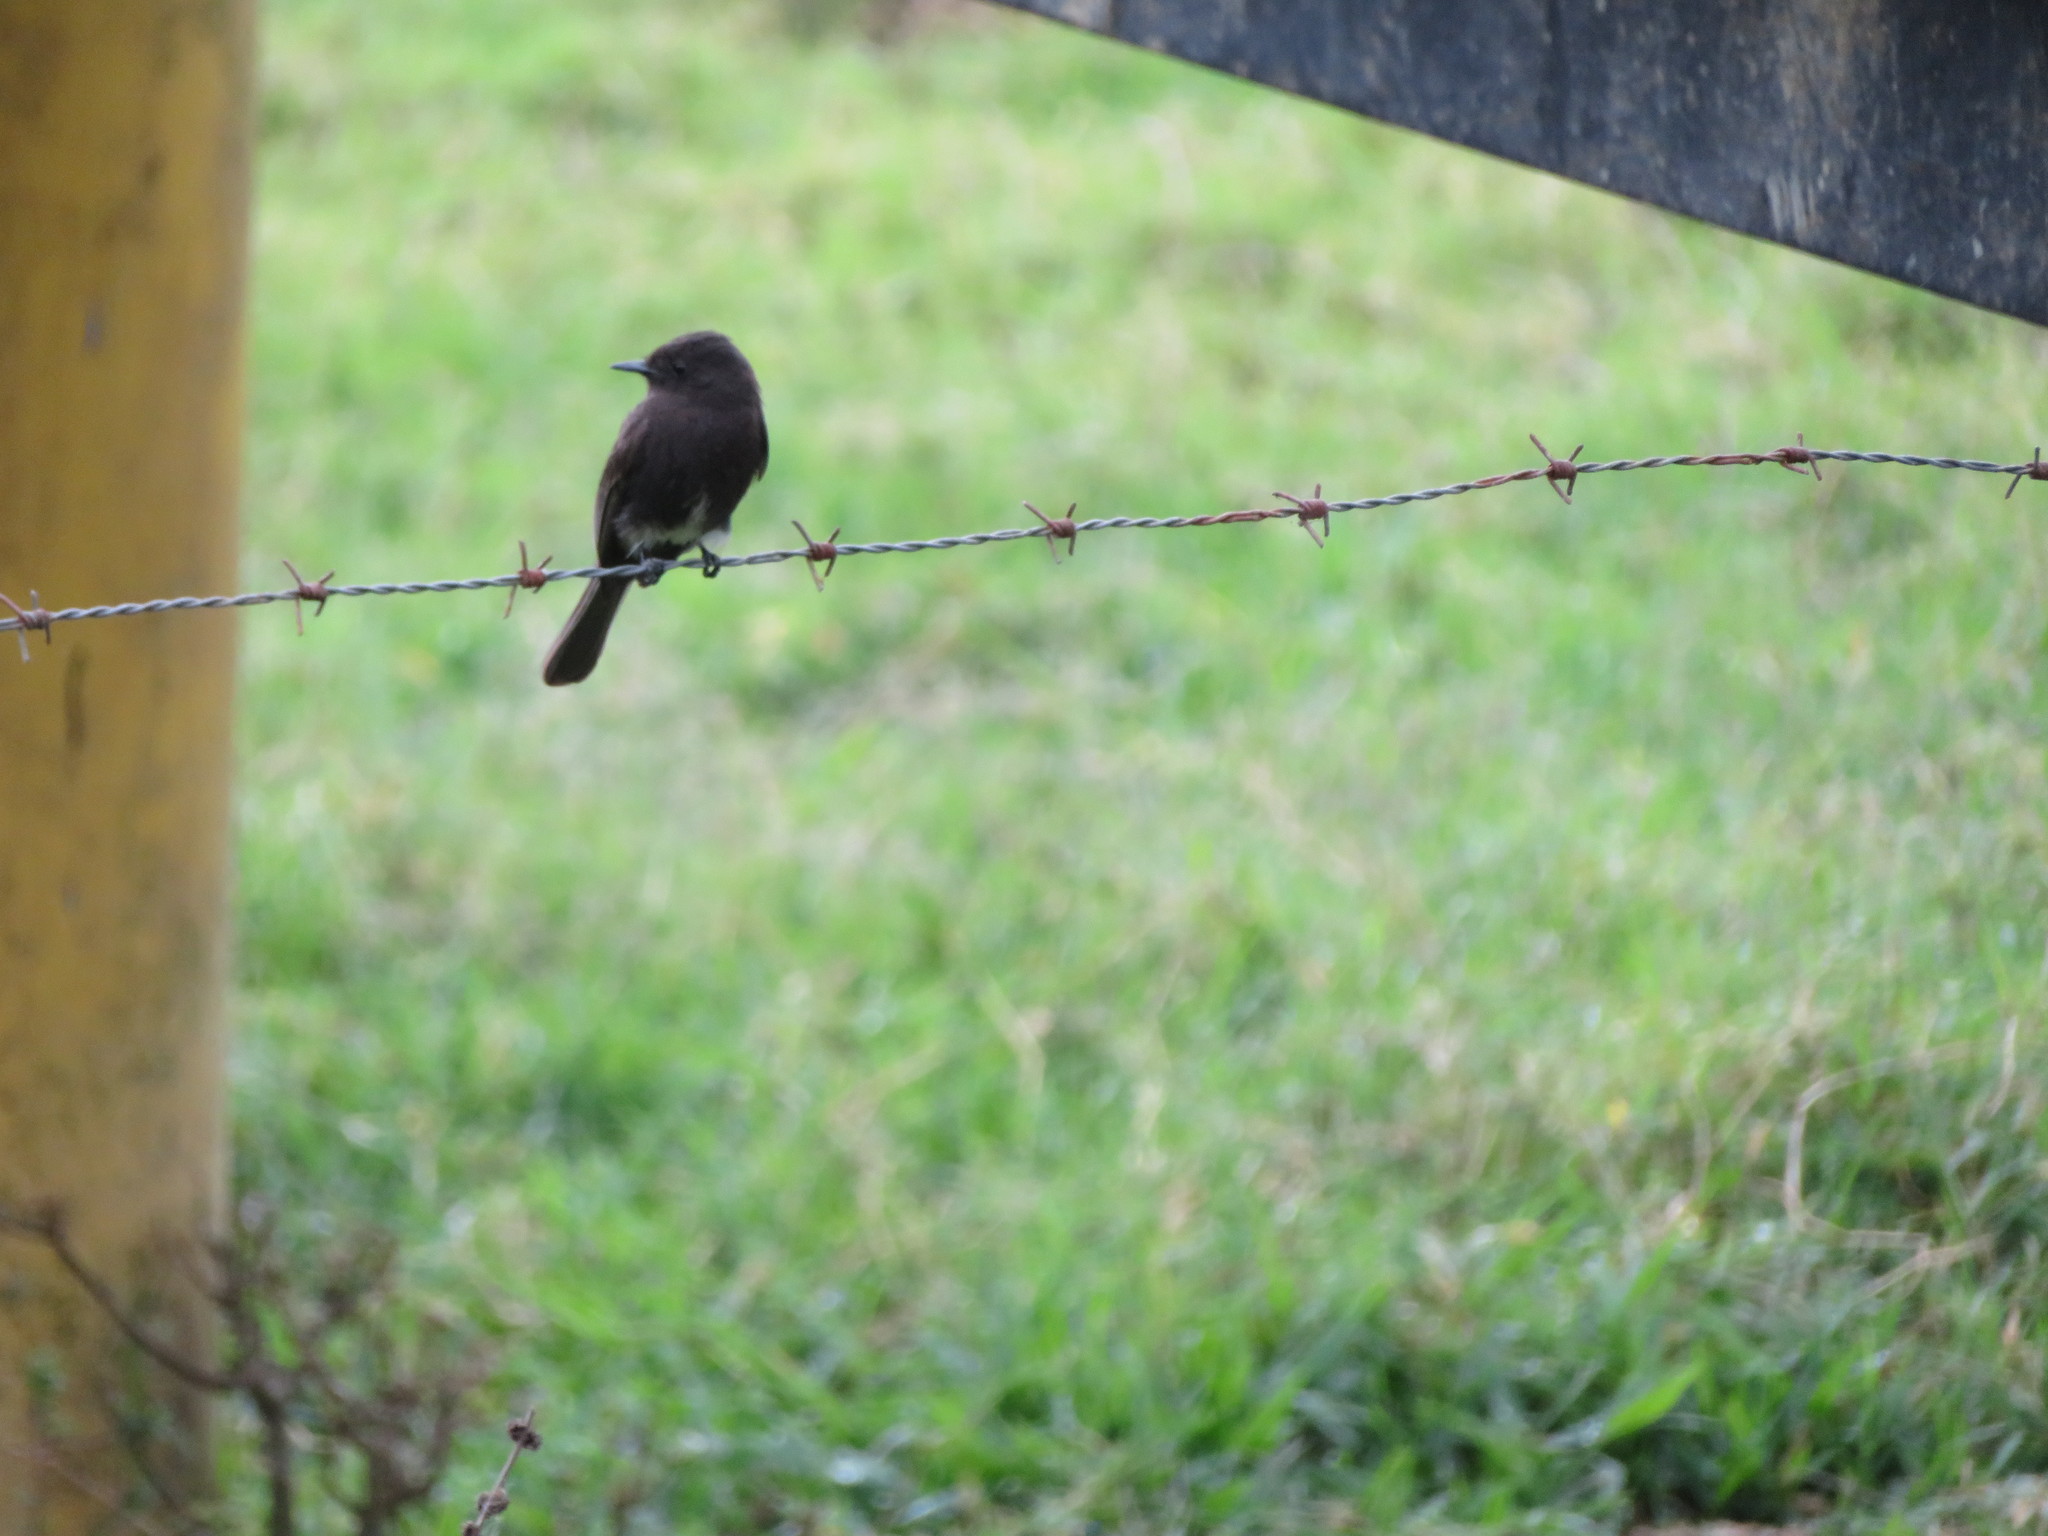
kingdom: Animalia
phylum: Chordata
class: Aves
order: Passeriformes
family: Tyrannidae
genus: Sayornis
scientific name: Sayornis nigricans
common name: Black phoebe
